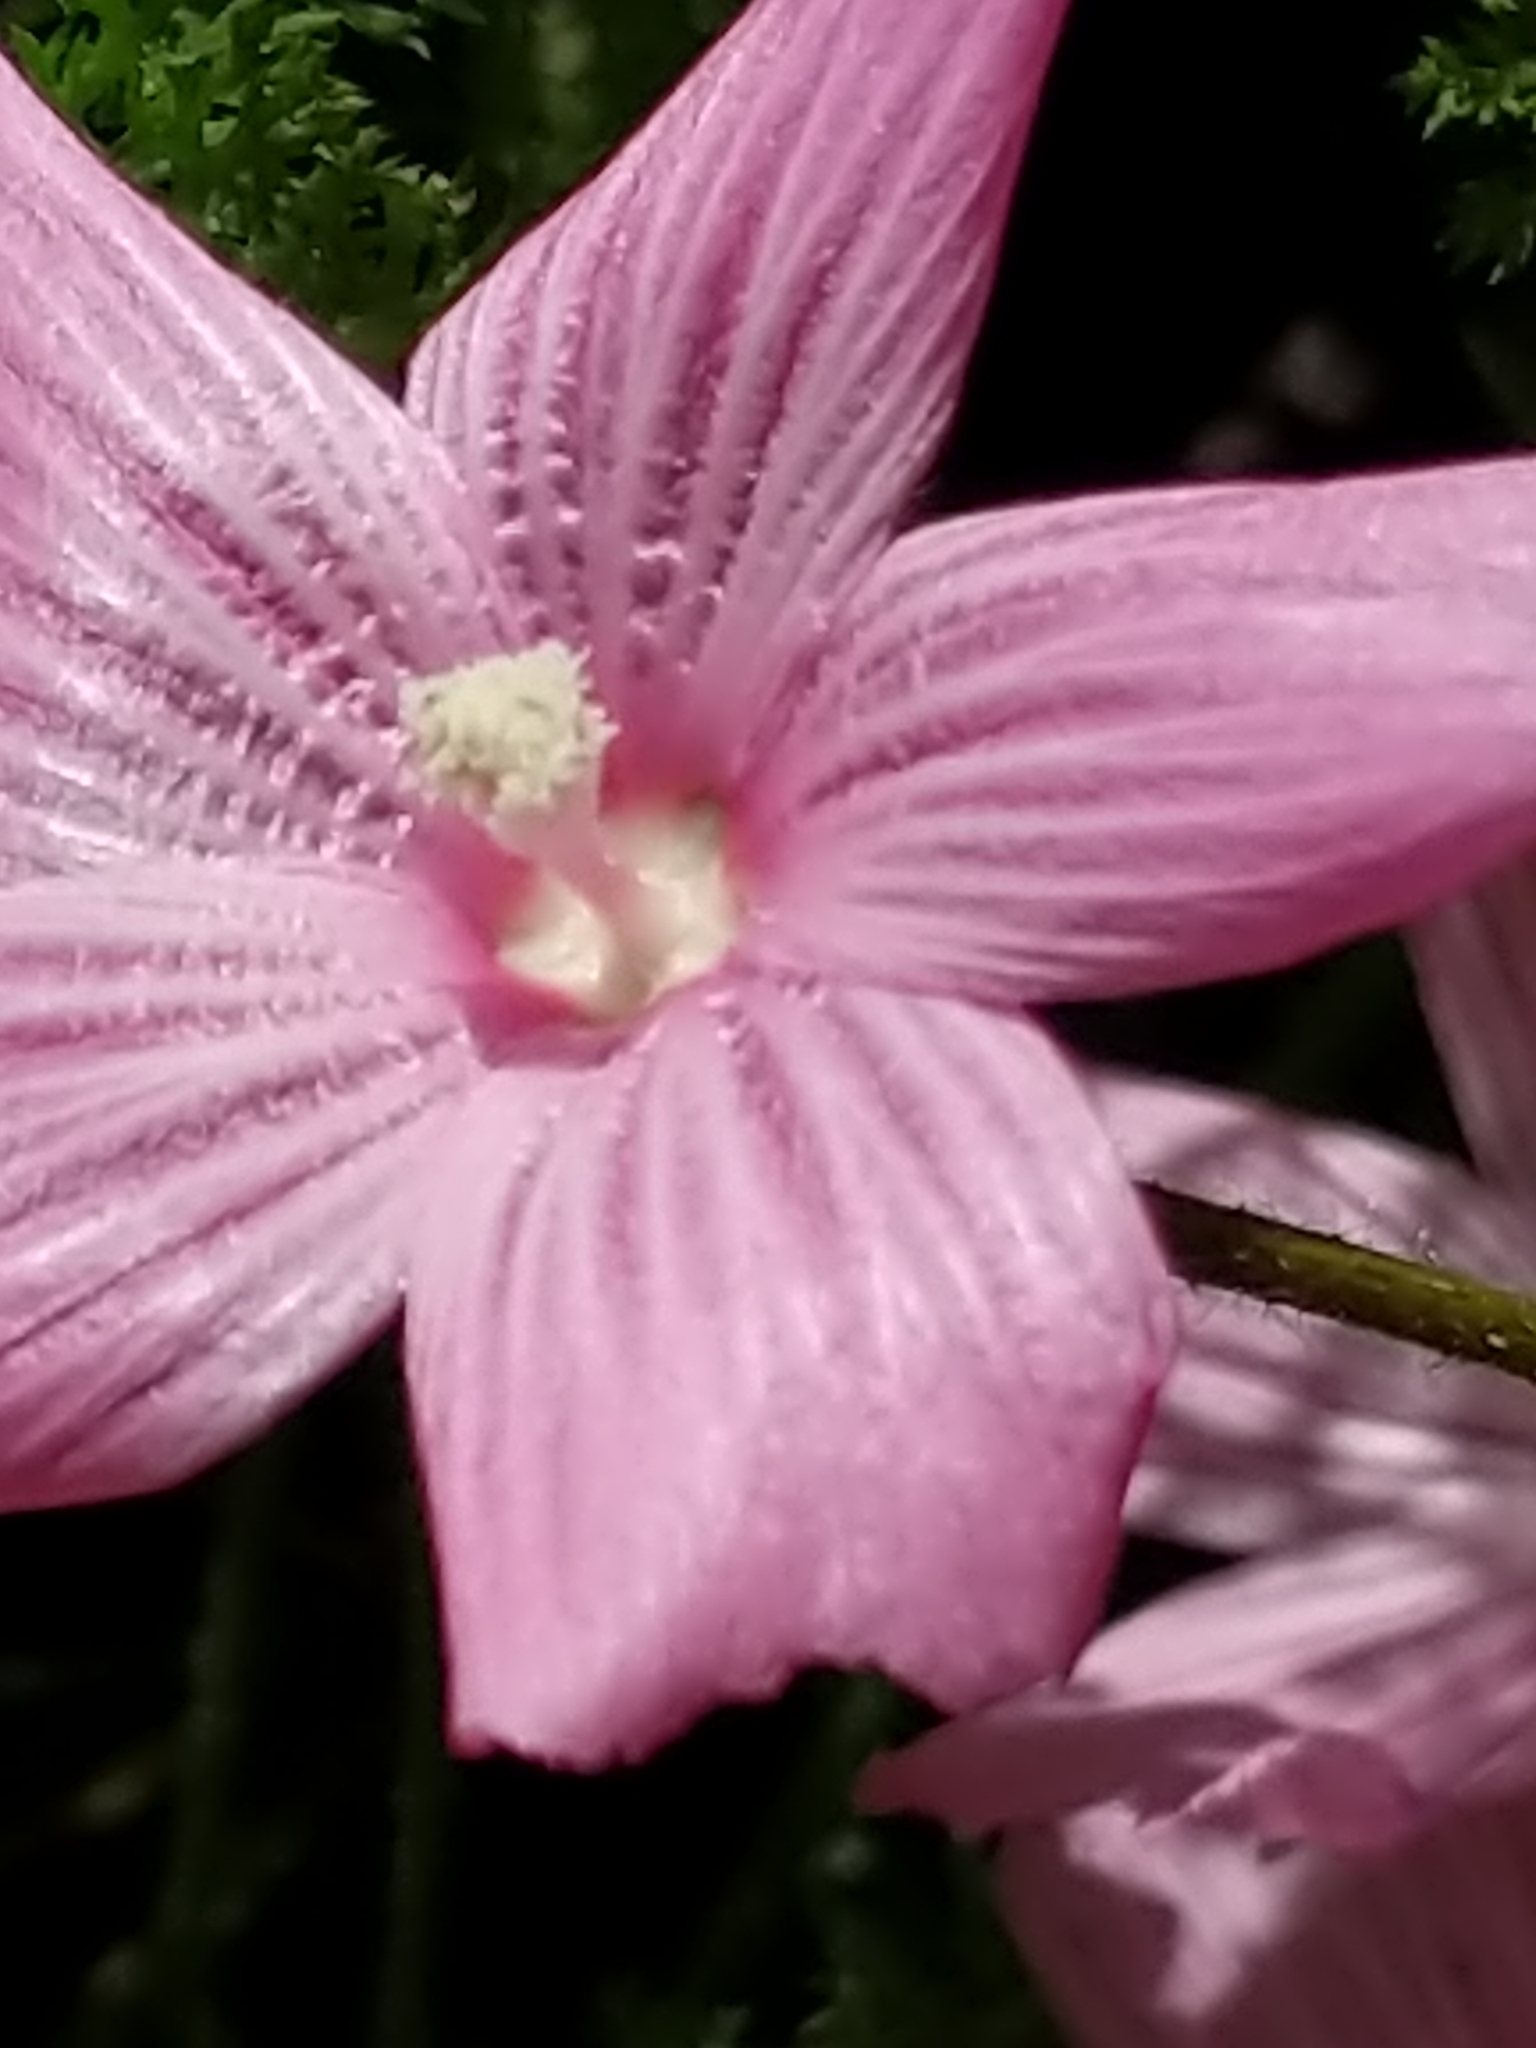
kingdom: Plantae
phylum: Tracheophyta
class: Magnoliopsida
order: Malvales
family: Malvaceae
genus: Sidalcea
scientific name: Sidalcea malviflora
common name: Greek mallow
